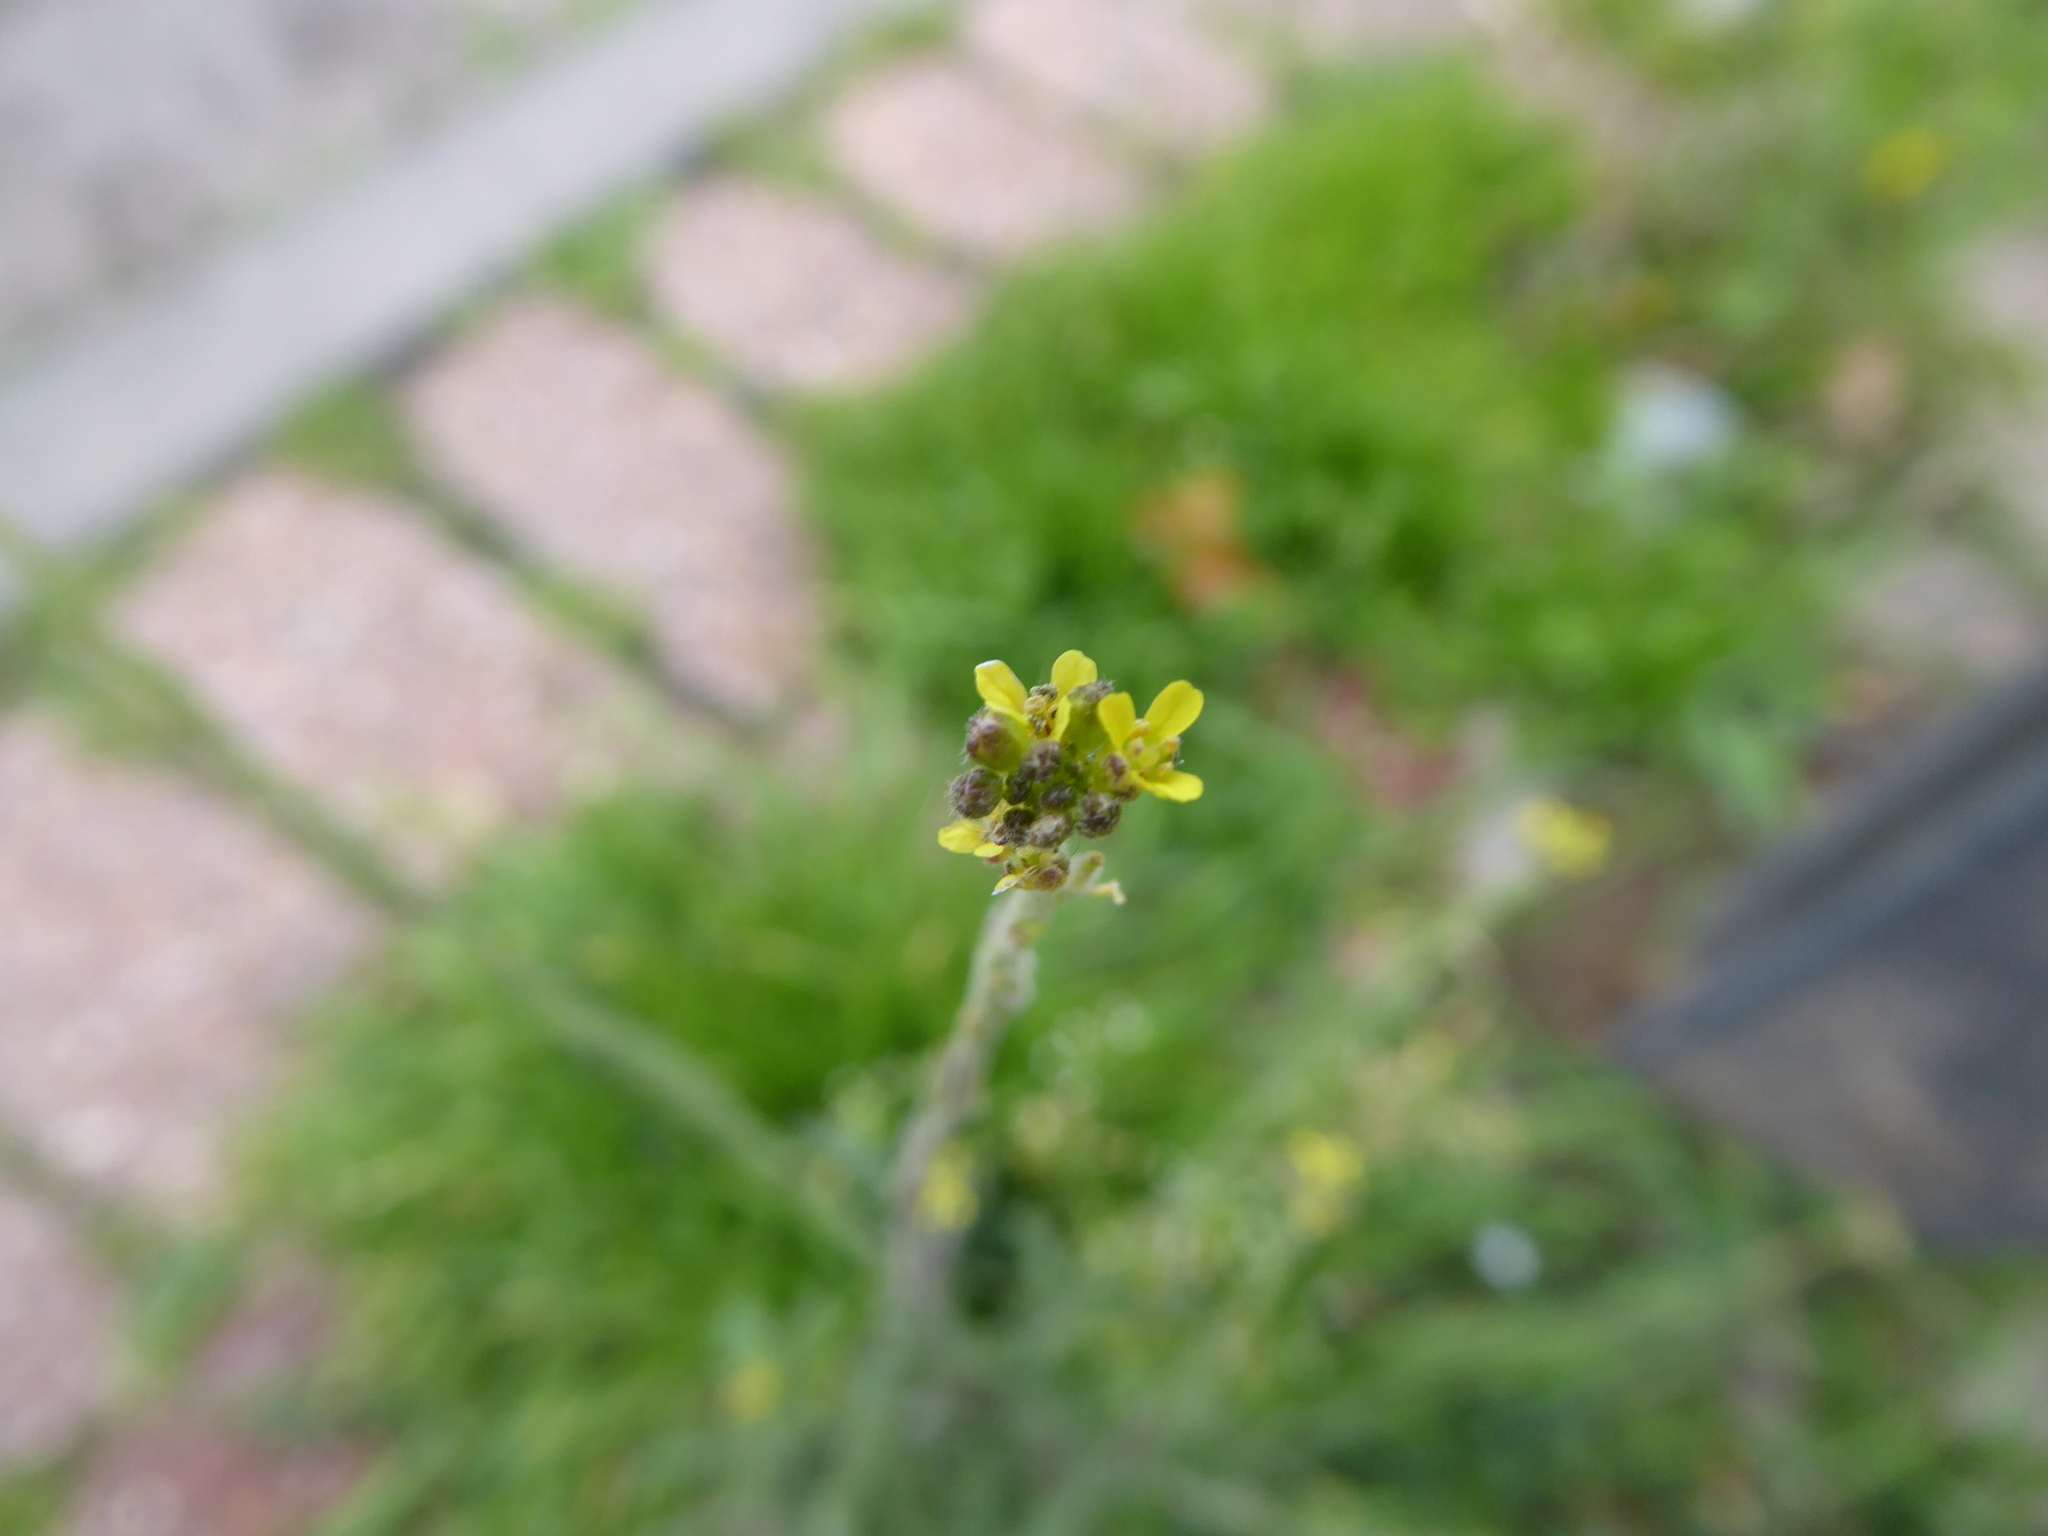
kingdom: Plantae
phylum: Tracheophyta
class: Magnoliopsida
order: Brassicales
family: Brassicaceae
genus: Sisymbrium
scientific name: Sisymbrium officinale
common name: Hedge mustard
